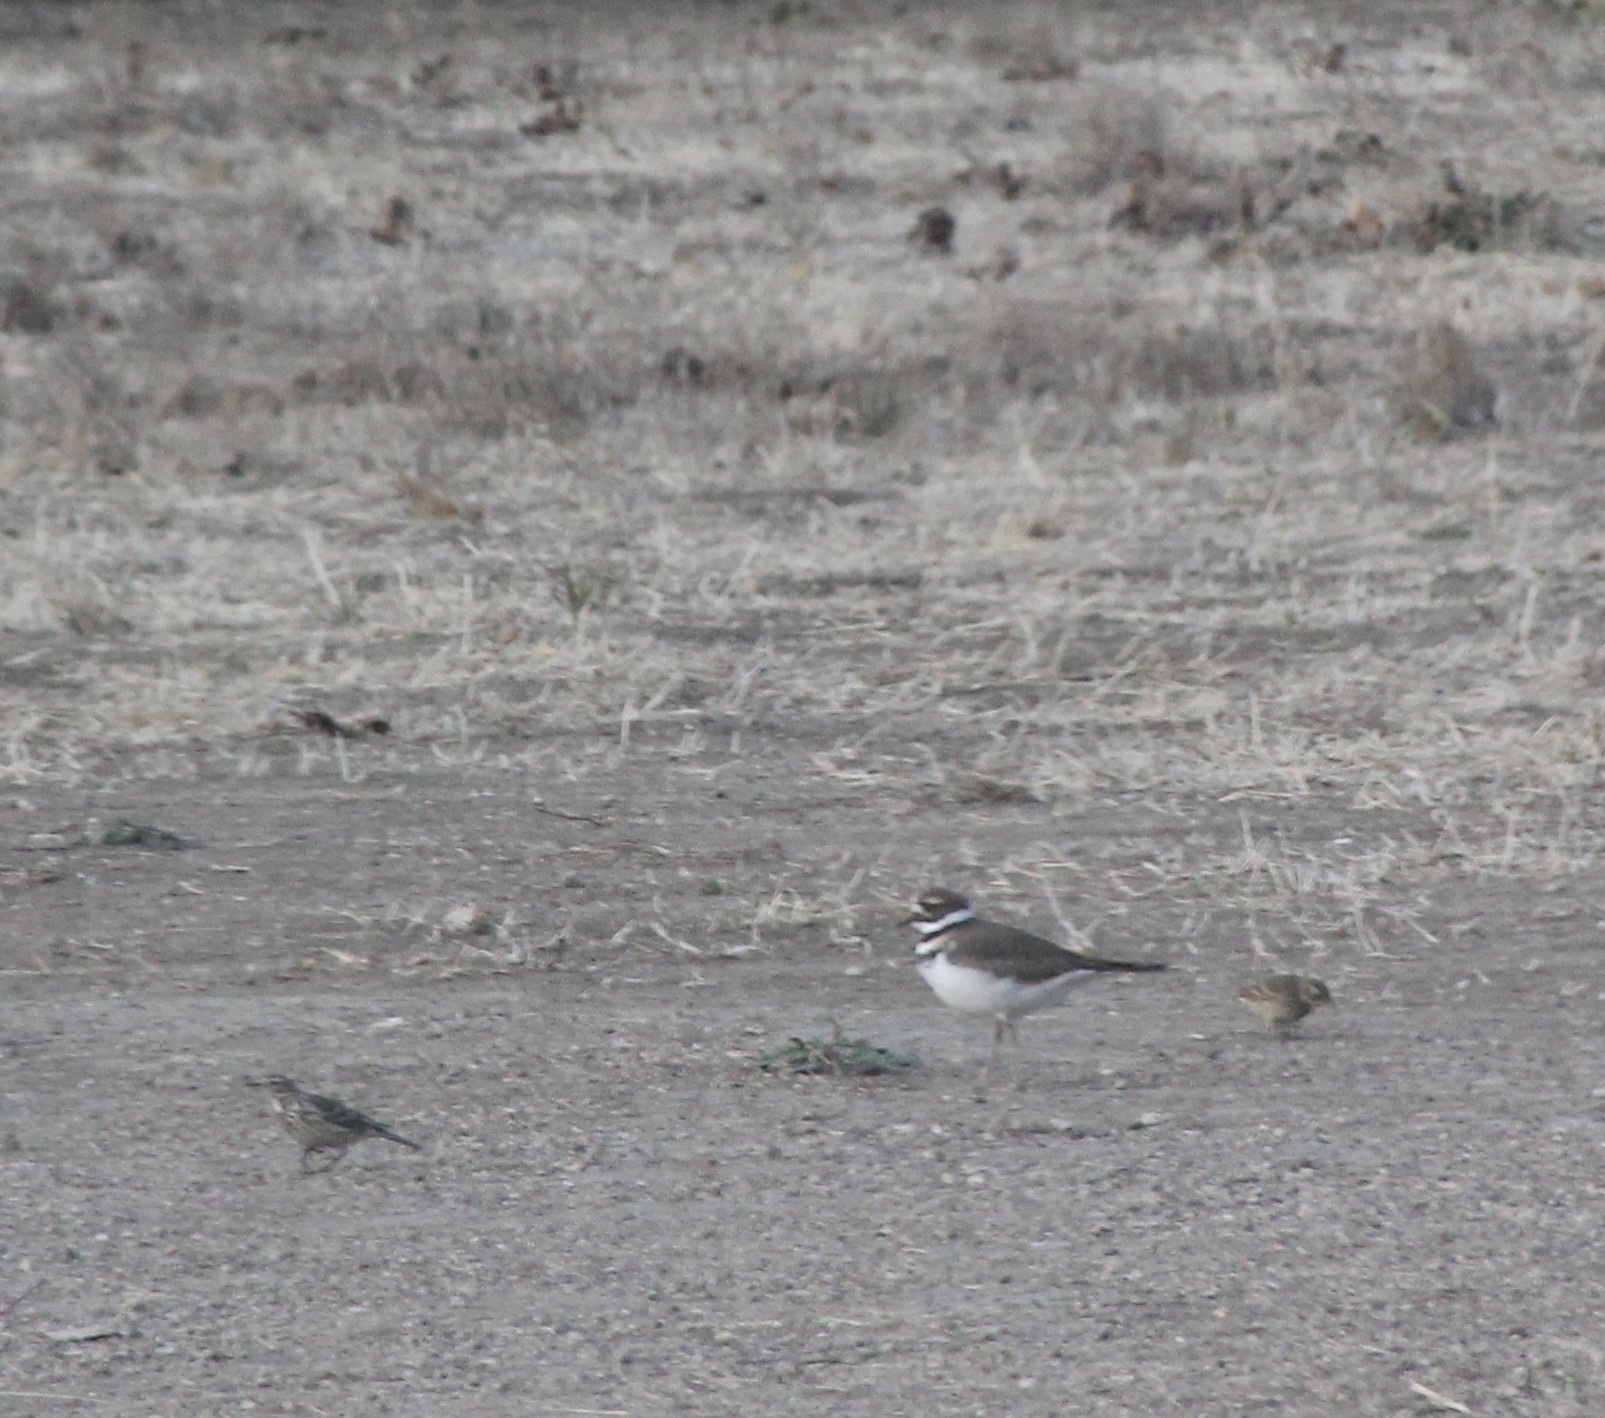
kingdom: Animalia
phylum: Chordata
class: Aves
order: Charadriiformes
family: Charadriidae
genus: Charadrius
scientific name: Charadrius vociferus
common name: Killdeer
